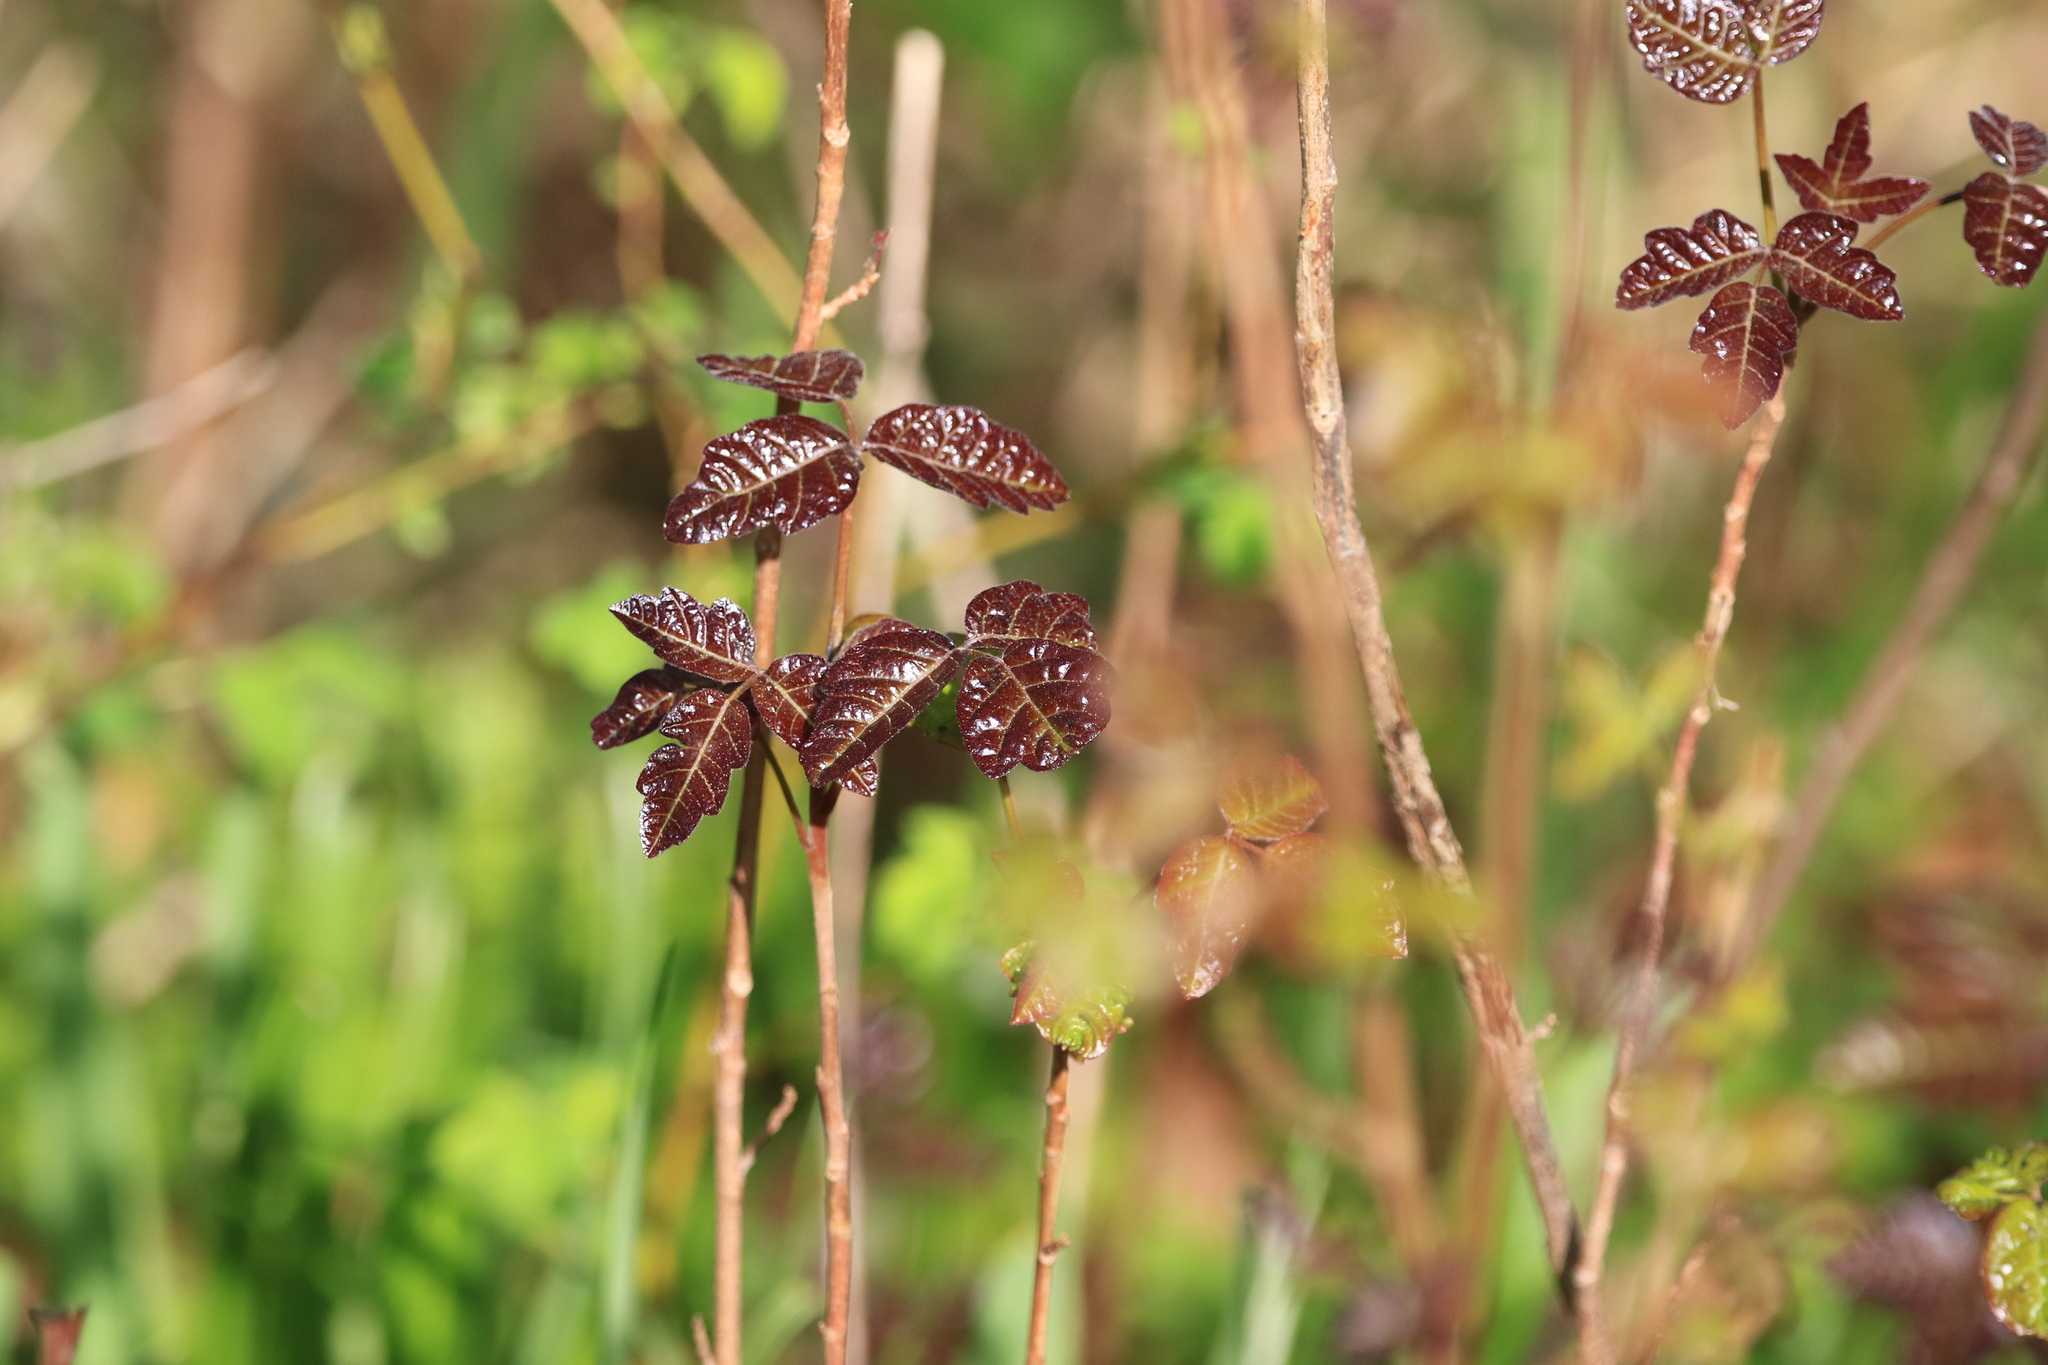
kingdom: Plantae
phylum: Tracheophyta
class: Magnoliopsida
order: Sapindales
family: Anacardiaceae
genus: Toxicodendron
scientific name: Toxicodendron diversilobum
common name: Pacific poison-oak
